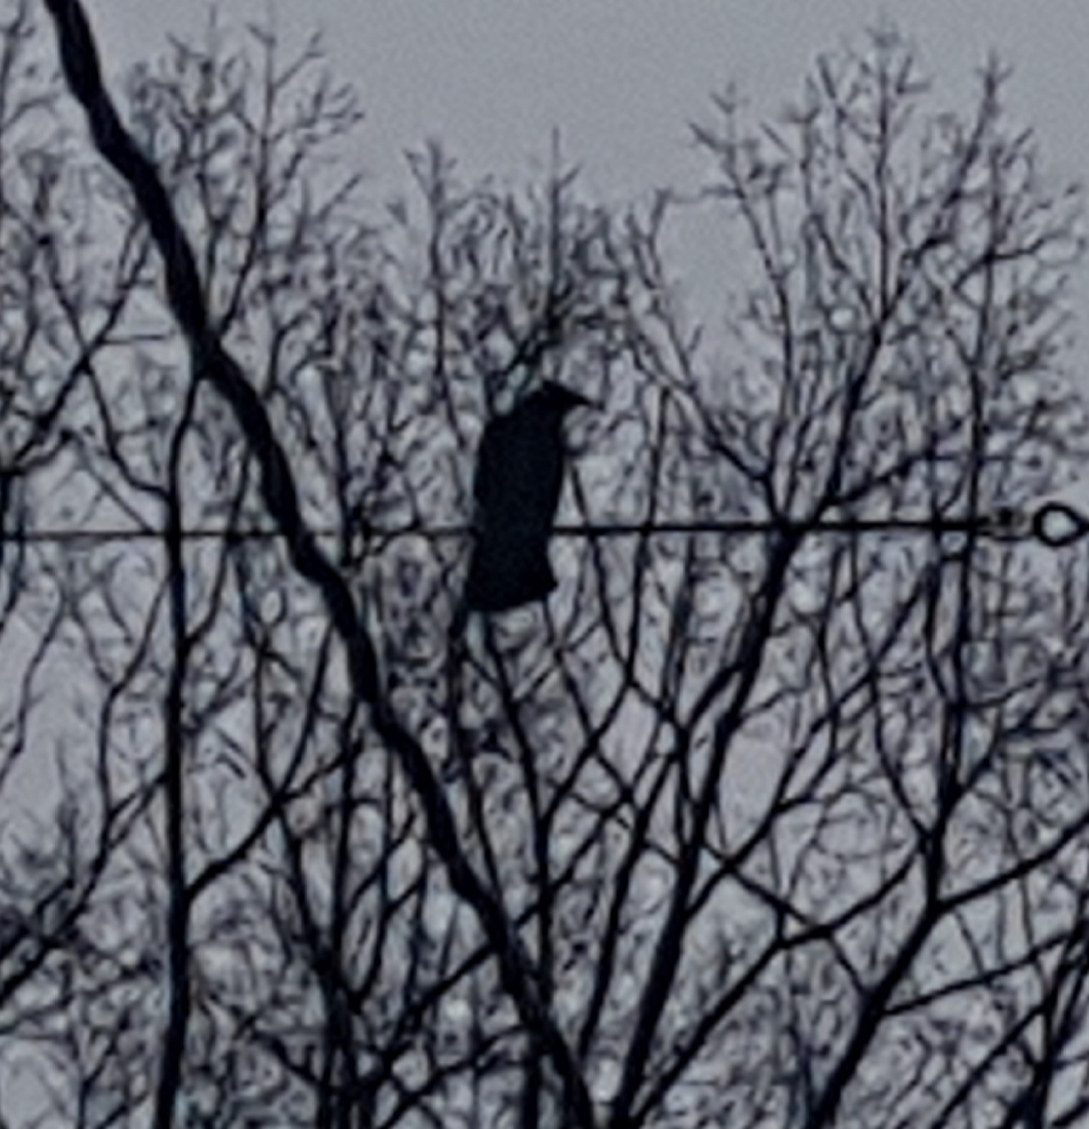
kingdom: Animalia
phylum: Chordata
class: Aves
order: Passeriformes
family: Corvidae
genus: Corvus
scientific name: Corvus brachyrhynchos
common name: American crow
